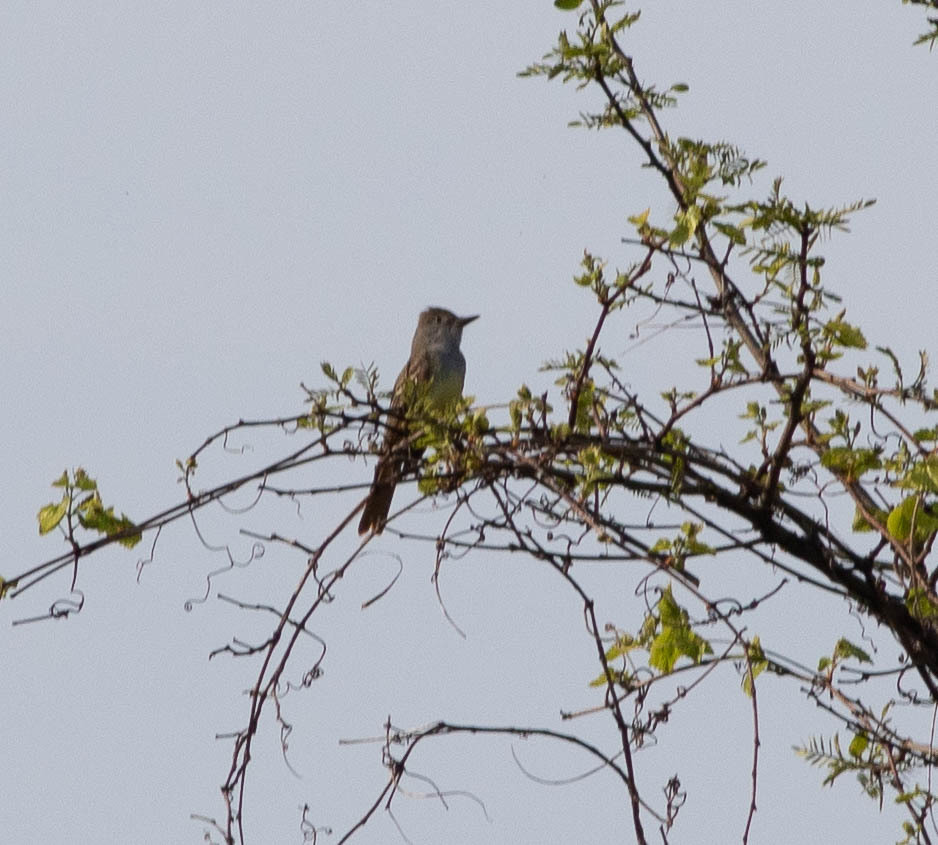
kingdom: Animalia
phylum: Chordata
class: Aves
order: Passeriformes
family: Tyrannidae
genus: Myiarchus
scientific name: Myiarchus crinitus
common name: Great crested flycatcher
